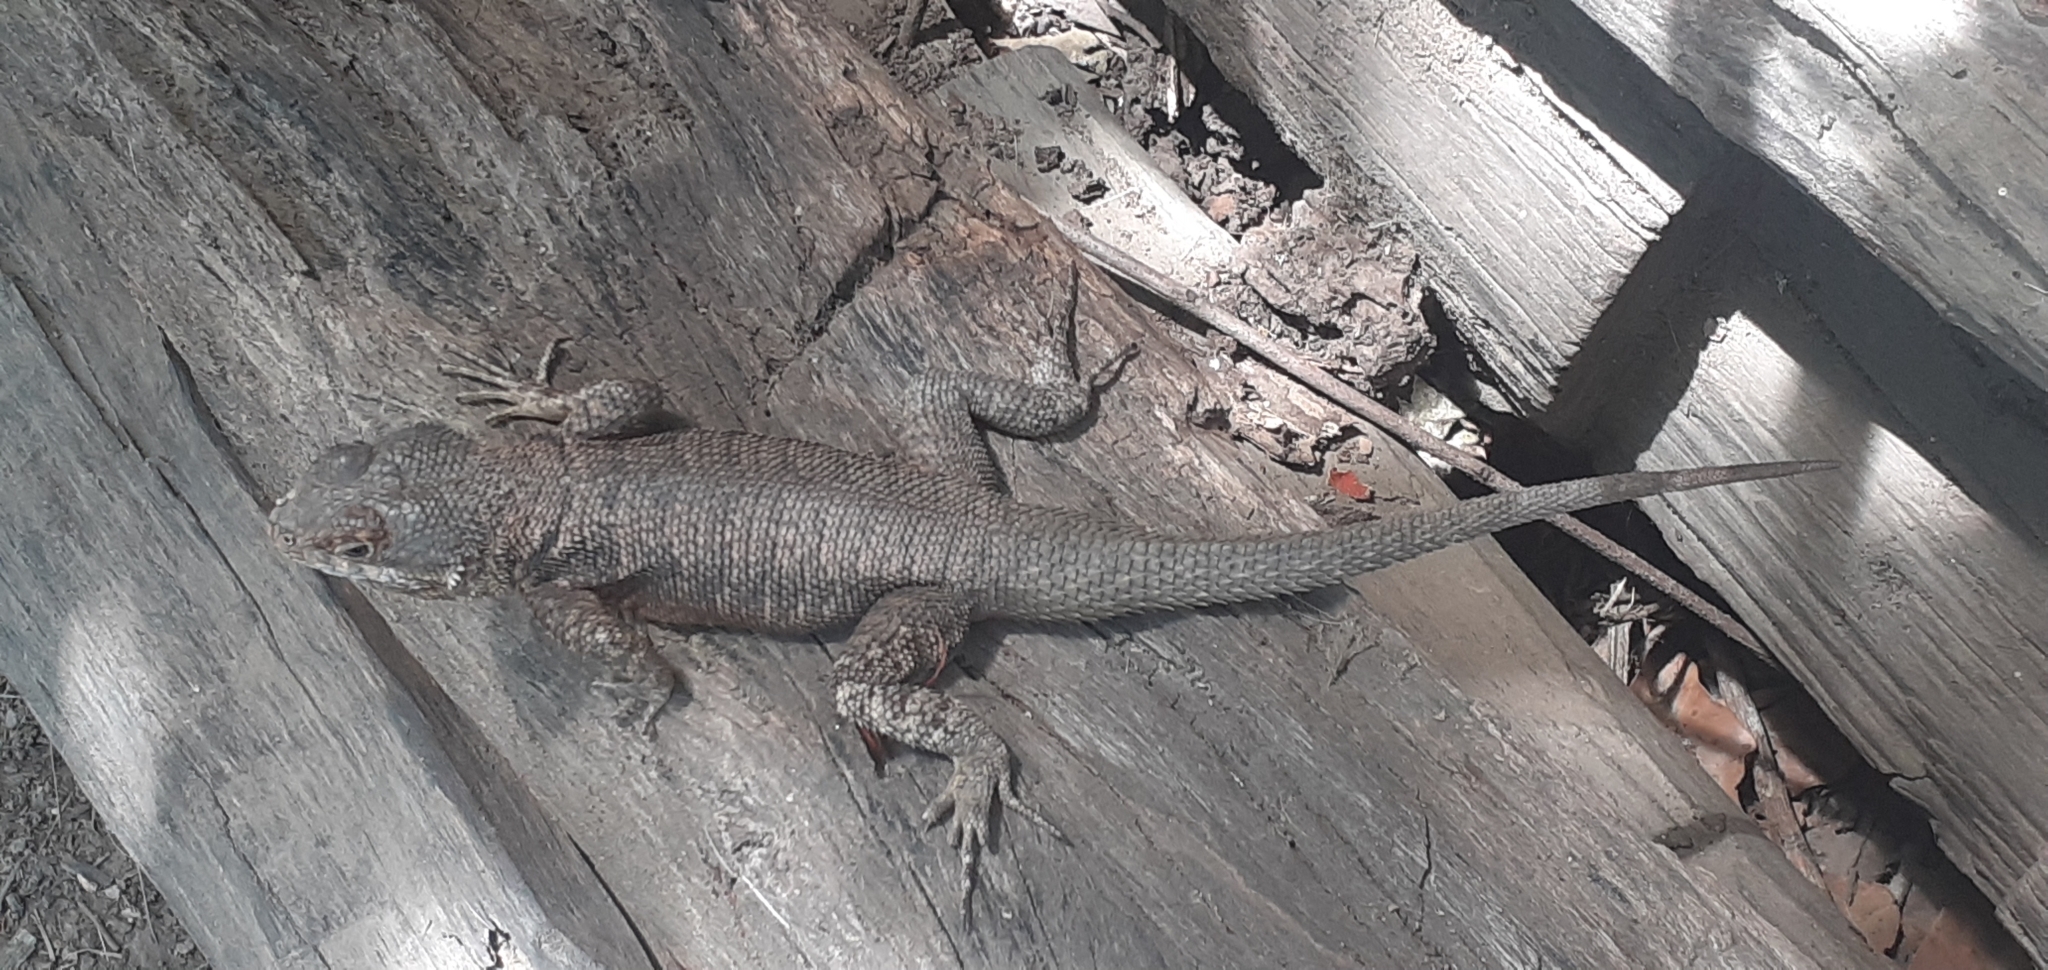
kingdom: Animalia
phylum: Chordata
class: Squamata
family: Tropiduridae
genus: Tropidurus
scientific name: Tropidurus hispidus
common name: Peters' lava lizard
